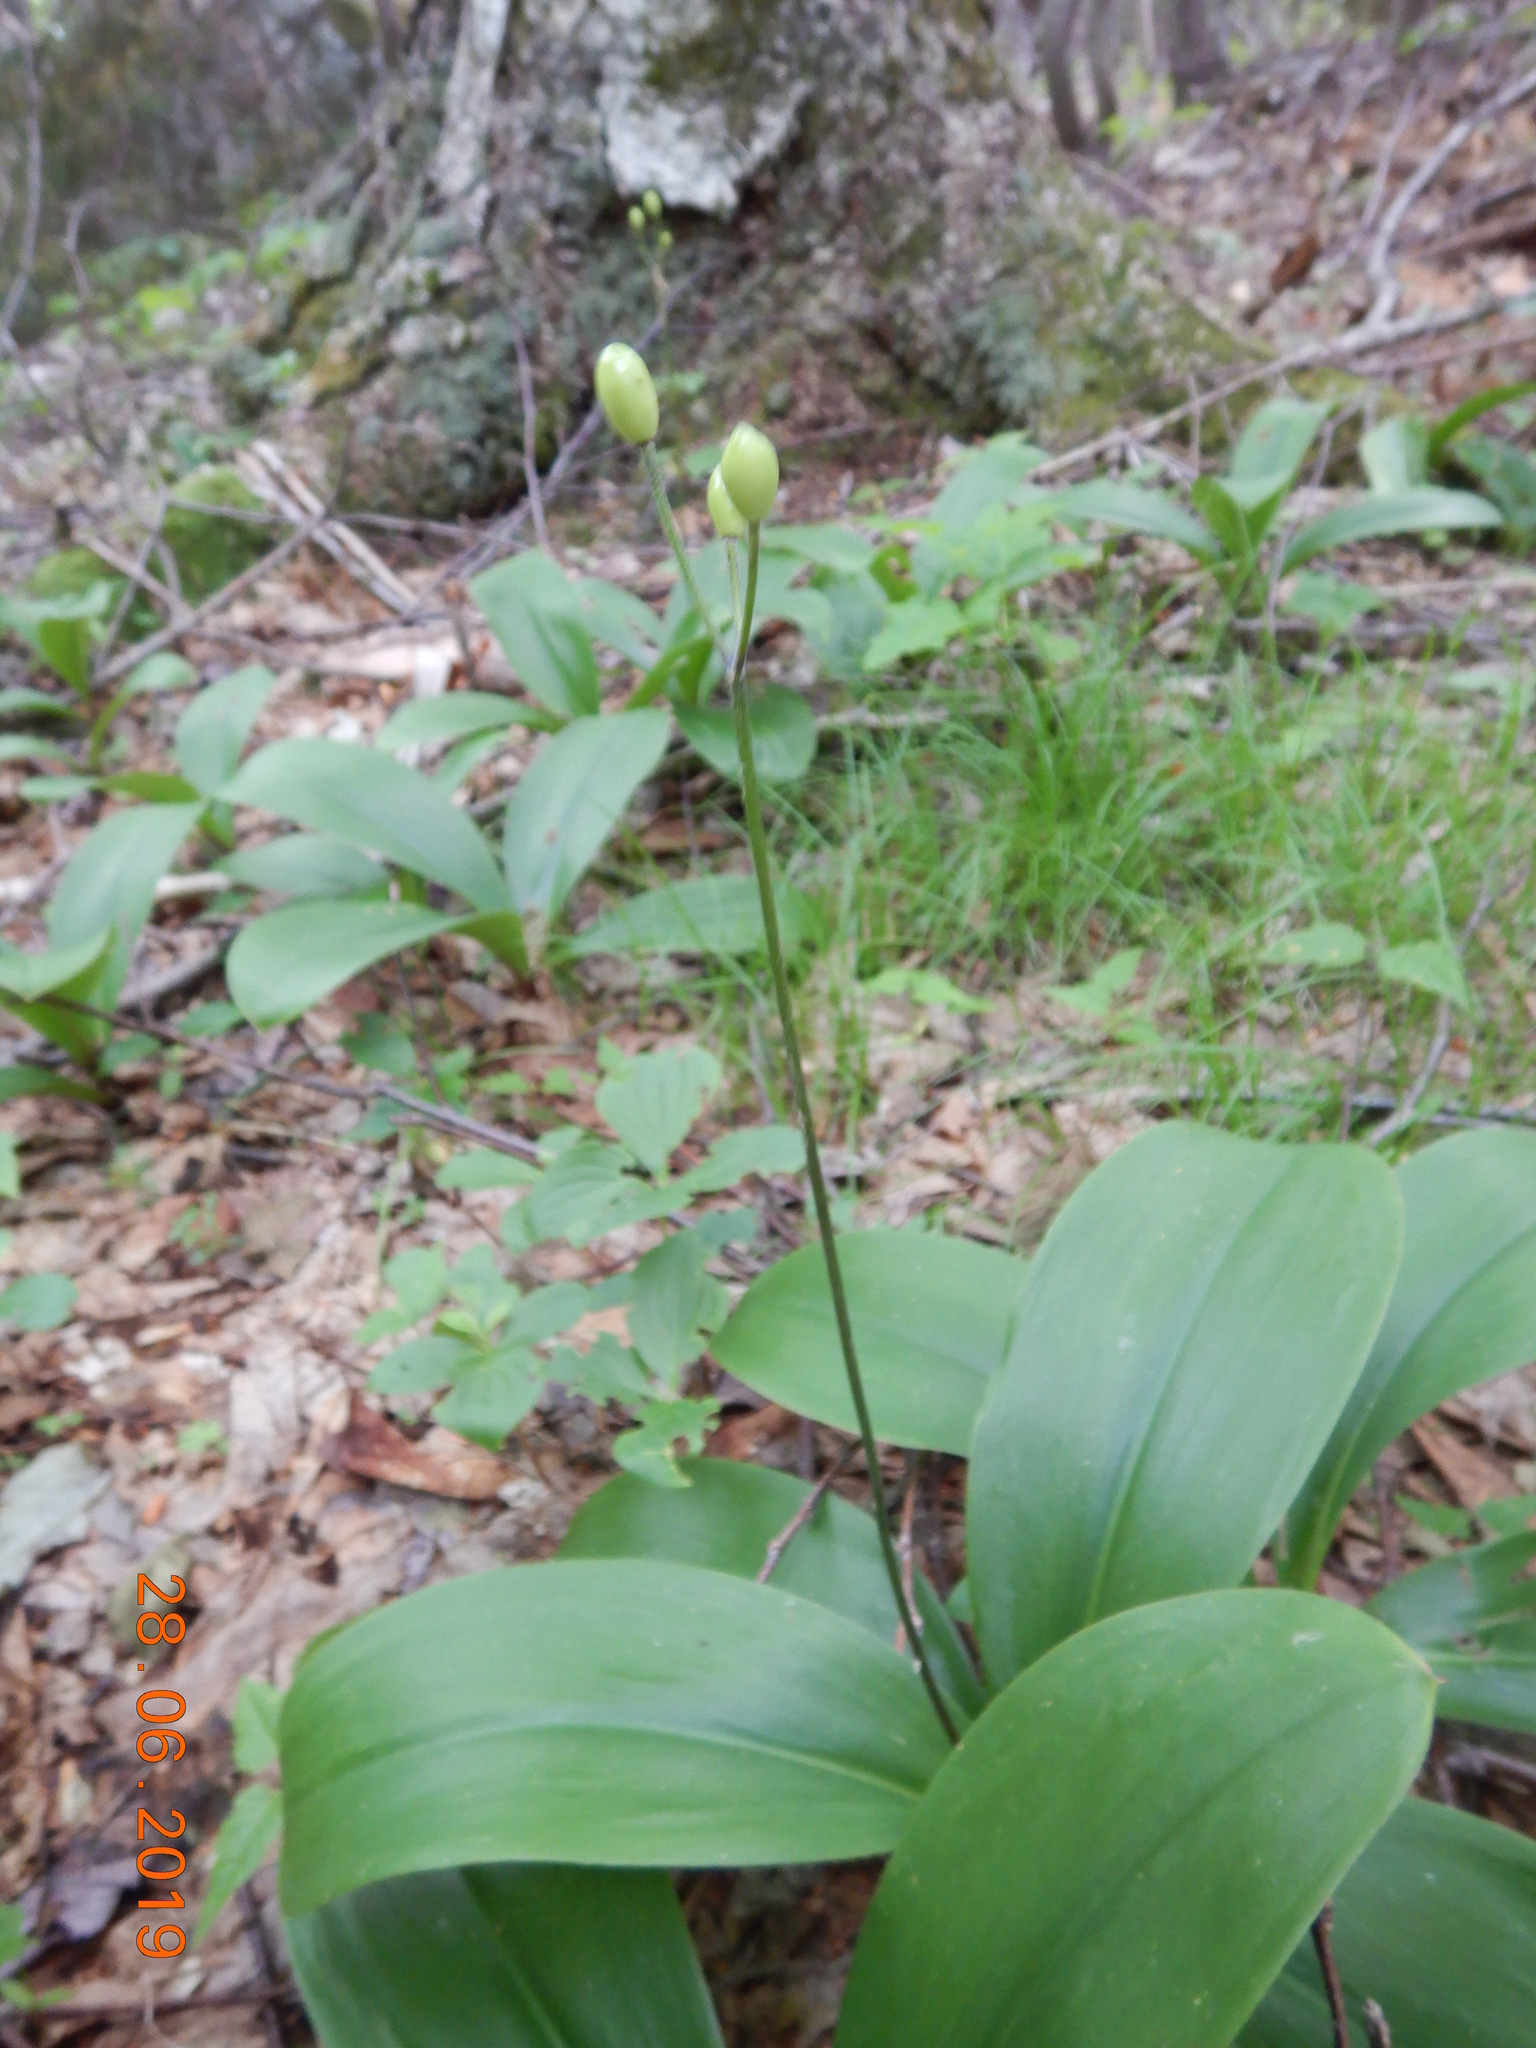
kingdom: Plantae
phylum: Tracheophyta
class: Liliopsida
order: Liliales
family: Liliaceae
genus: Clintonia
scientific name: Clintonia borealis
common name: Yellow clintonia
